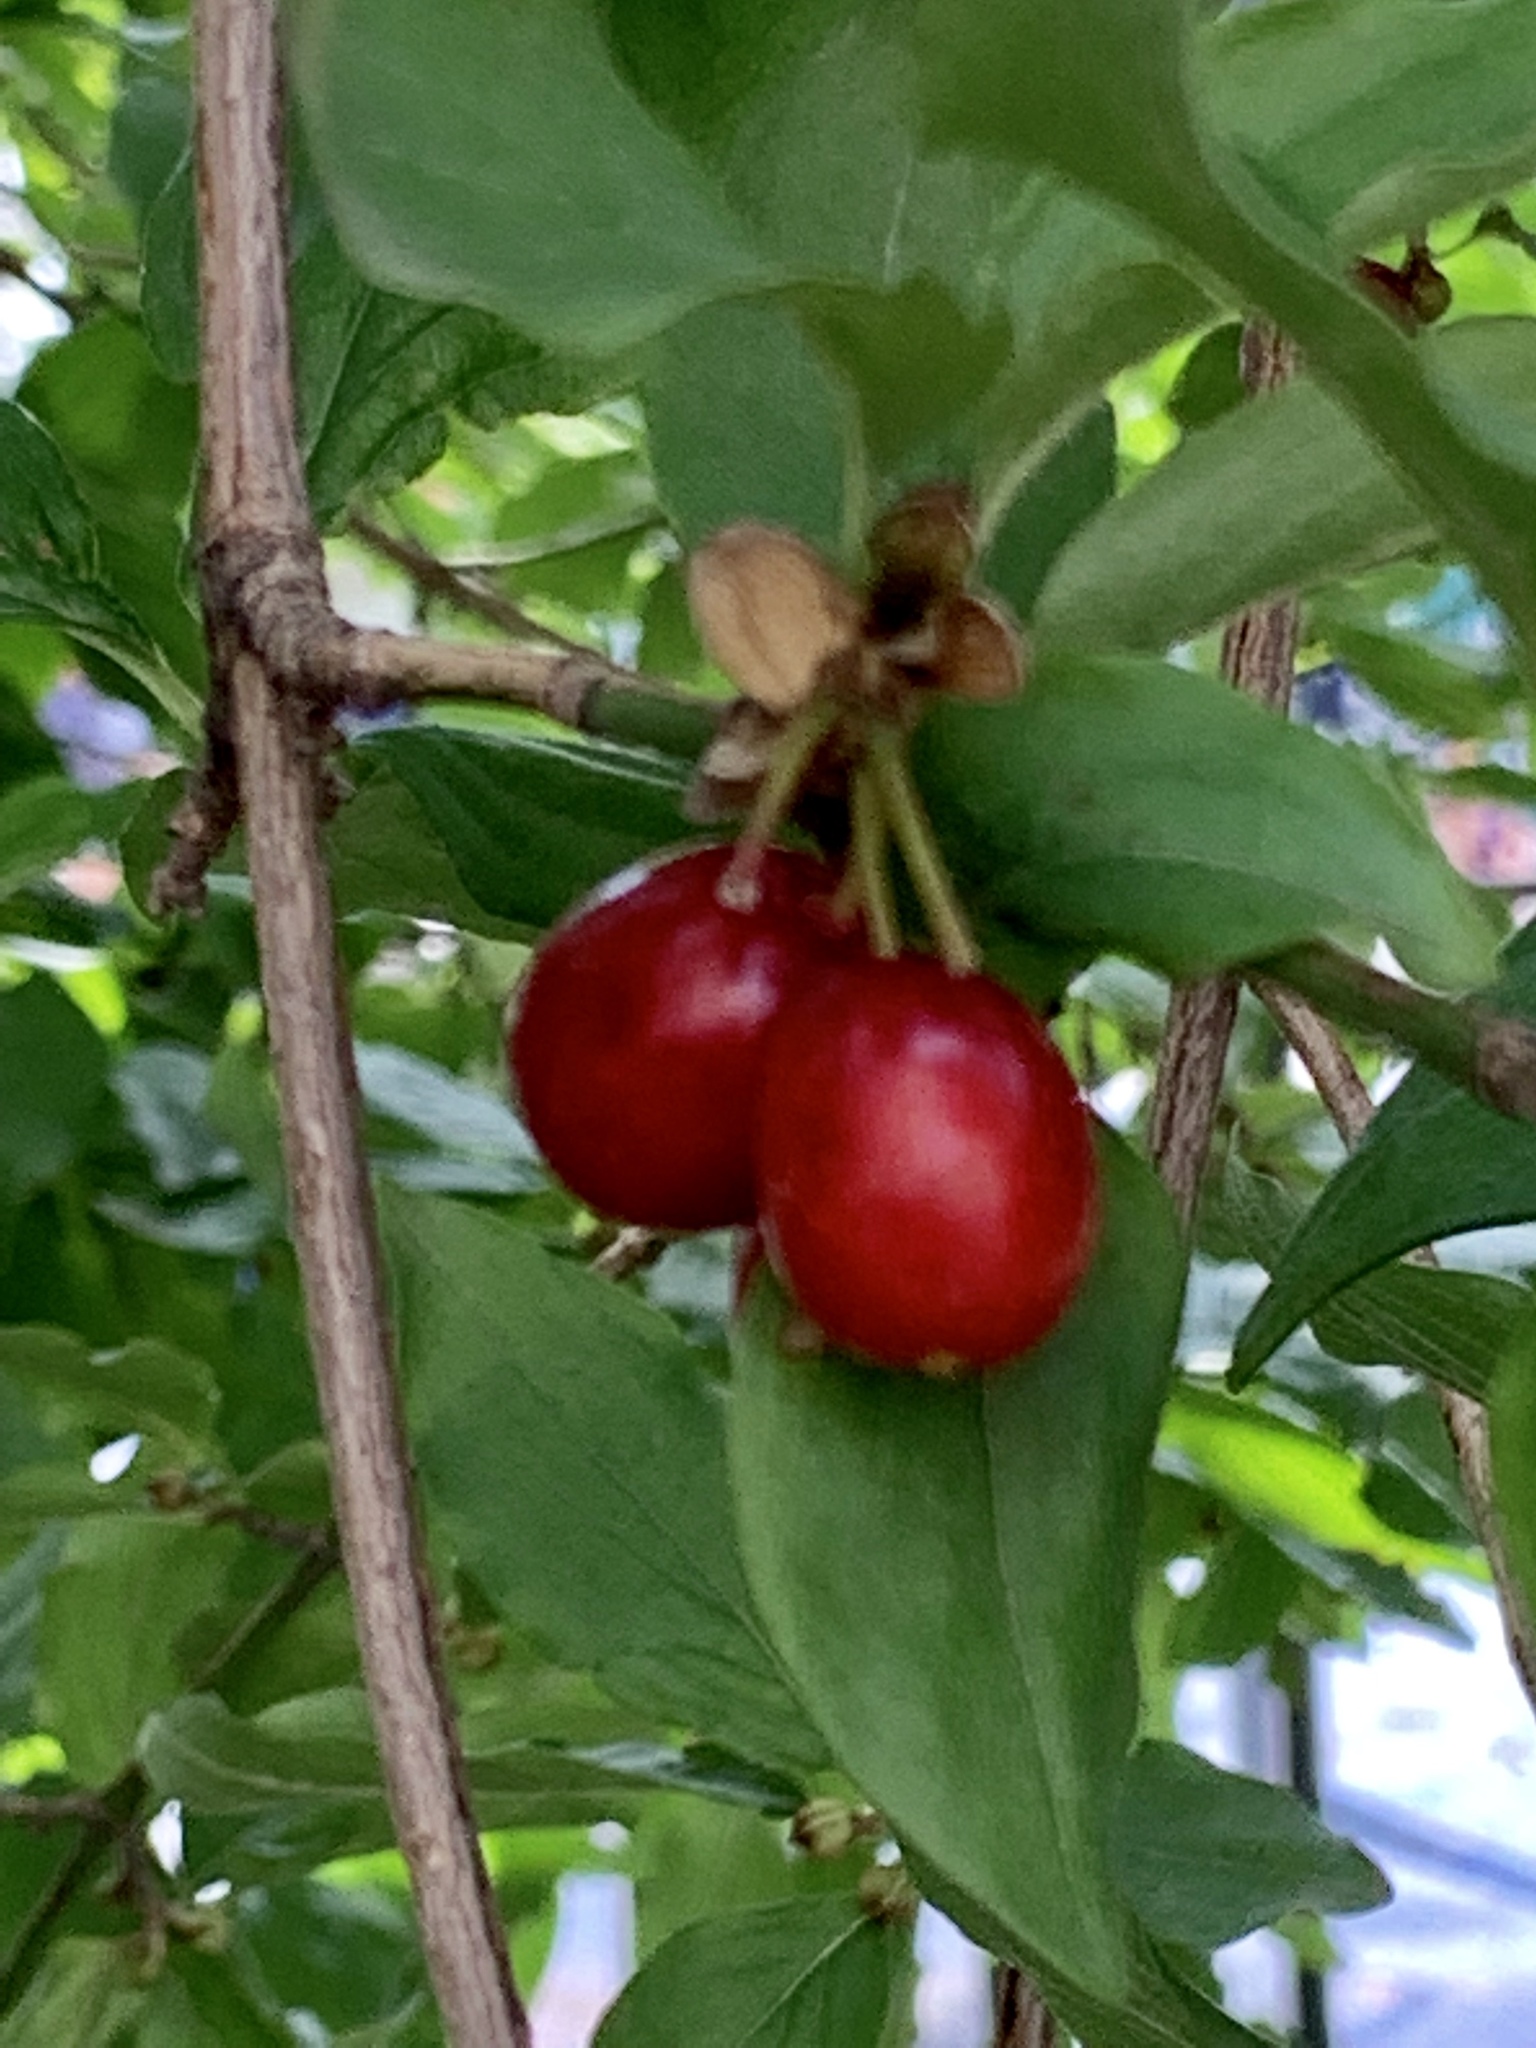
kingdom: Plantae
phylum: Tracheophyta
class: Magnoliopsida
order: Cornales
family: Cornaceae
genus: Cornus
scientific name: Cornus mas
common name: Cornelian-cherry
